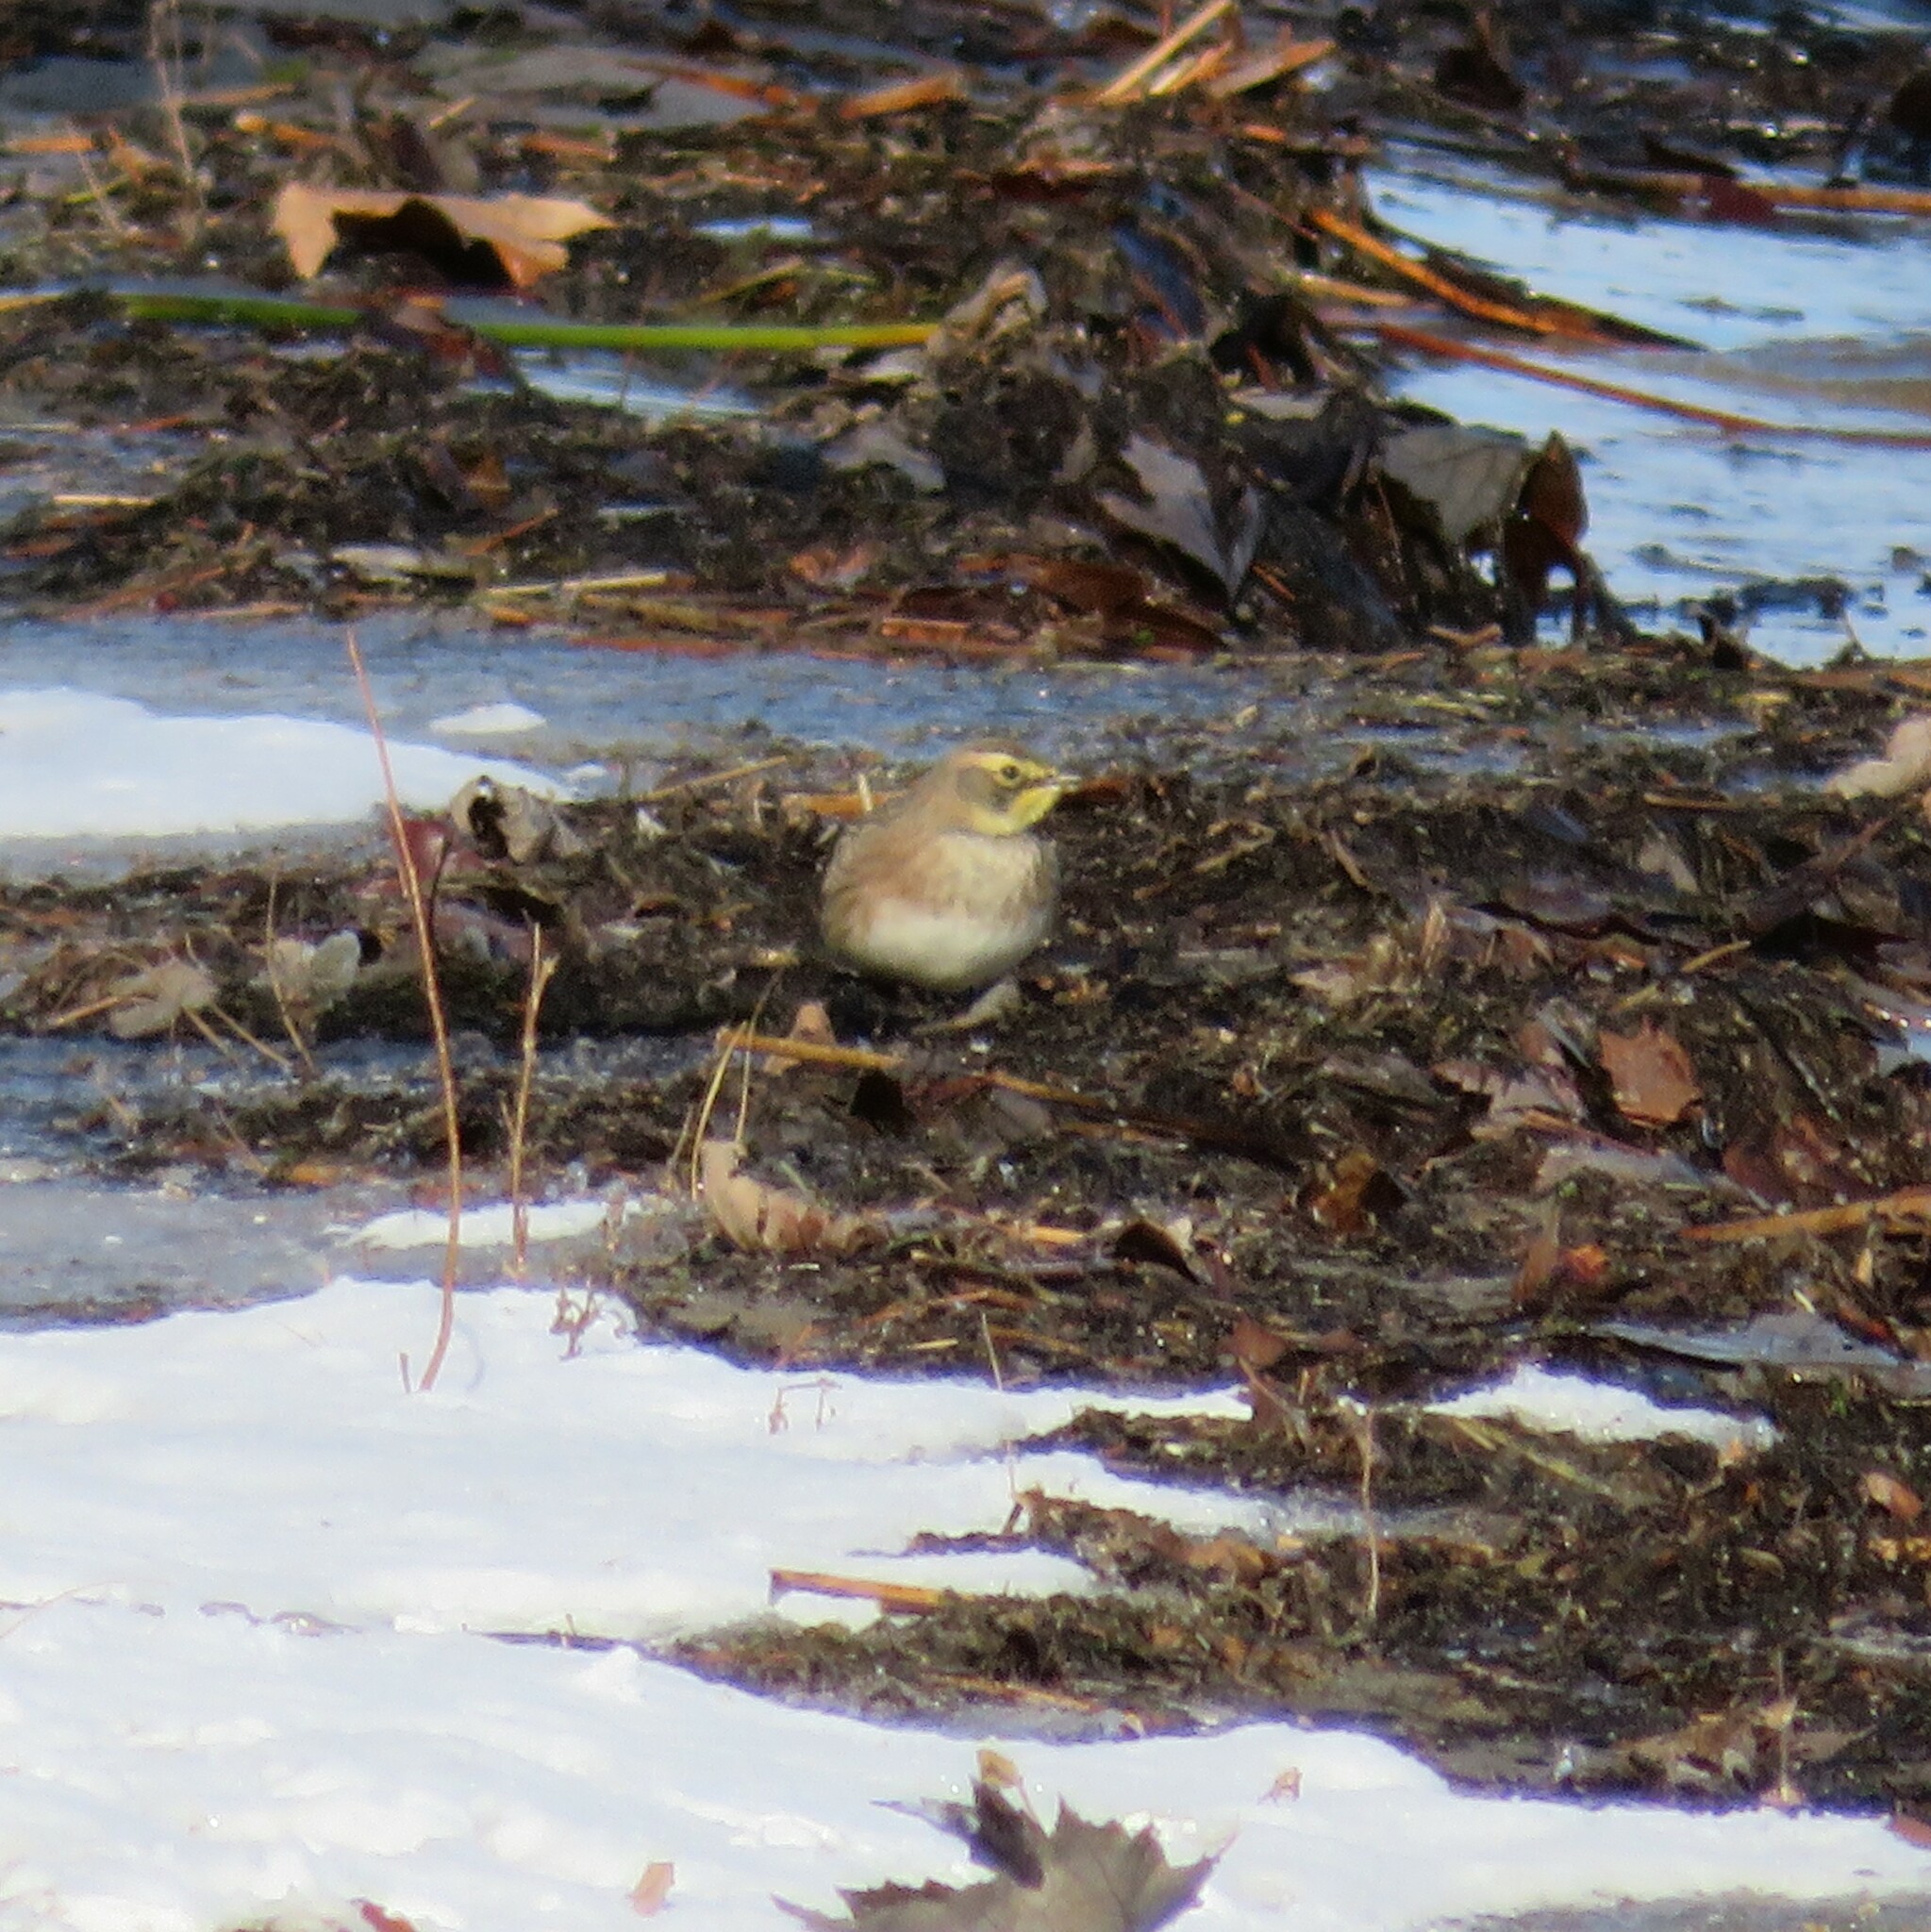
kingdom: Animalia
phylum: Chordata
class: Aves
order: Passeriformes
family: Alaudidae
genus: Eremophila
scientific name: Eremophila alpestris
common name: Horned lark
